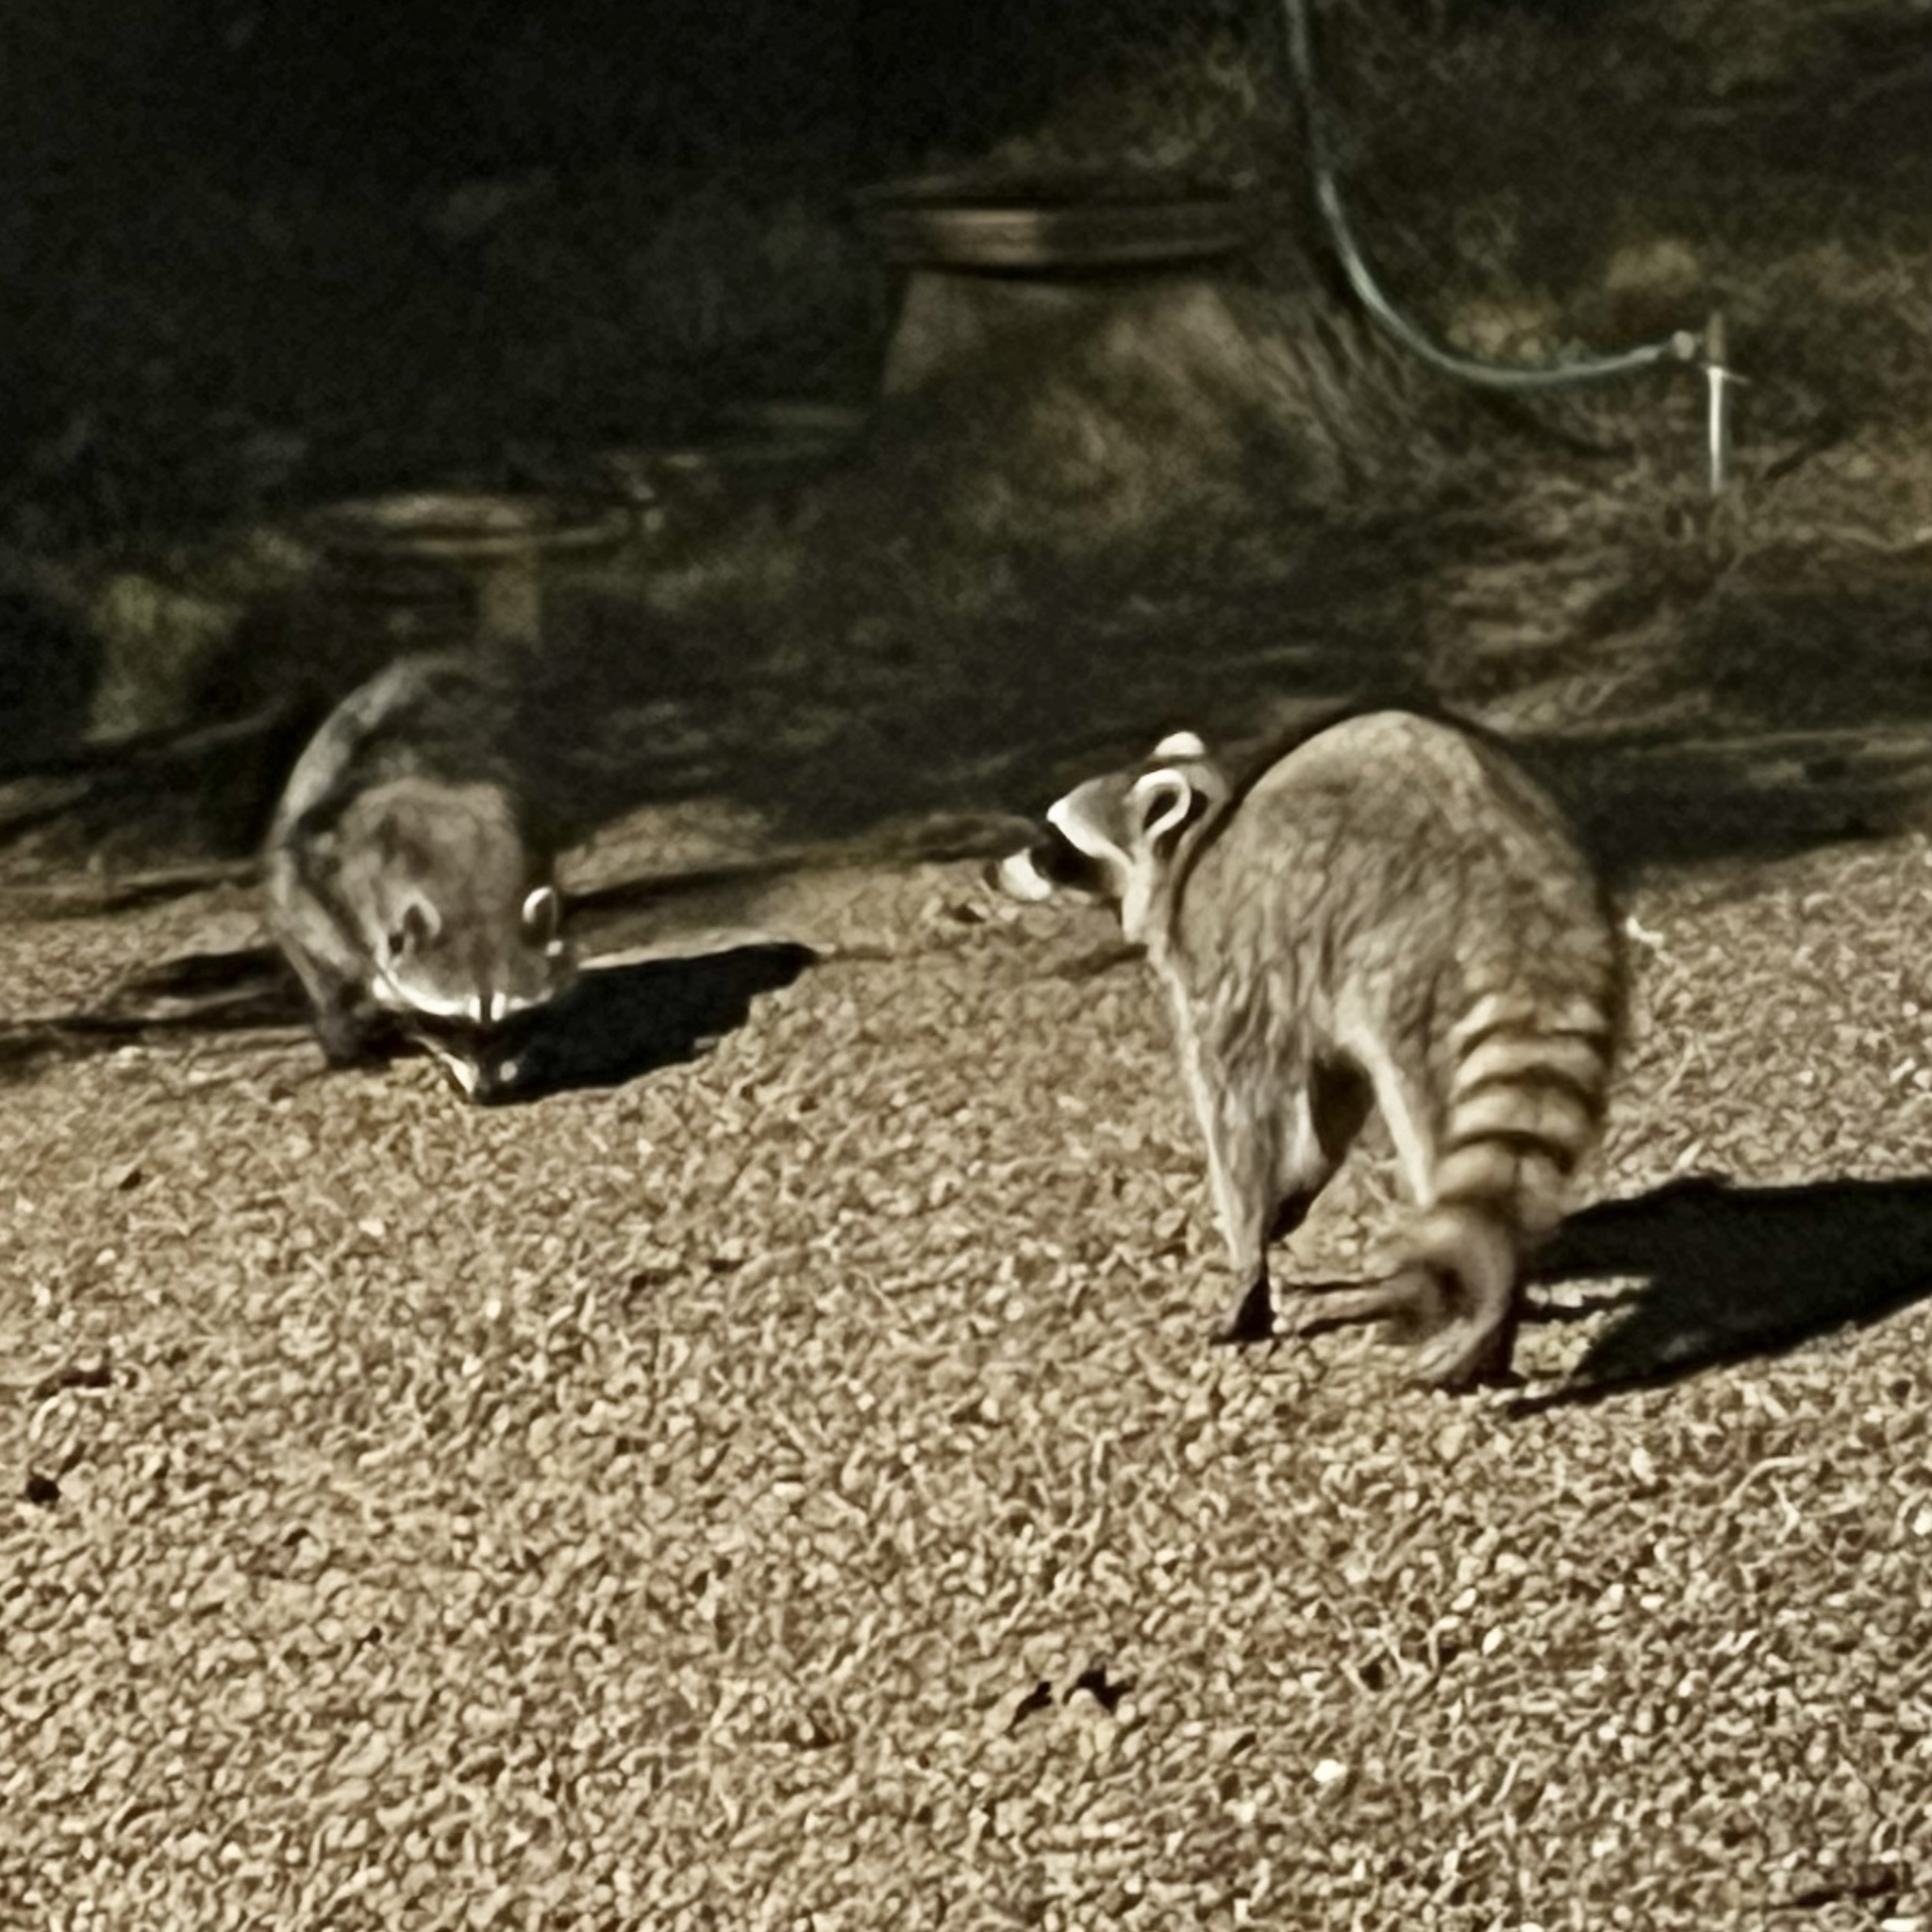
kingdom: Animalia
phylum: Chordata
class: Mammalia
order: Carnivora
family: Procyonidae
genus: Procyon
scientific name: Procyon lotor
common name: Raccoon
